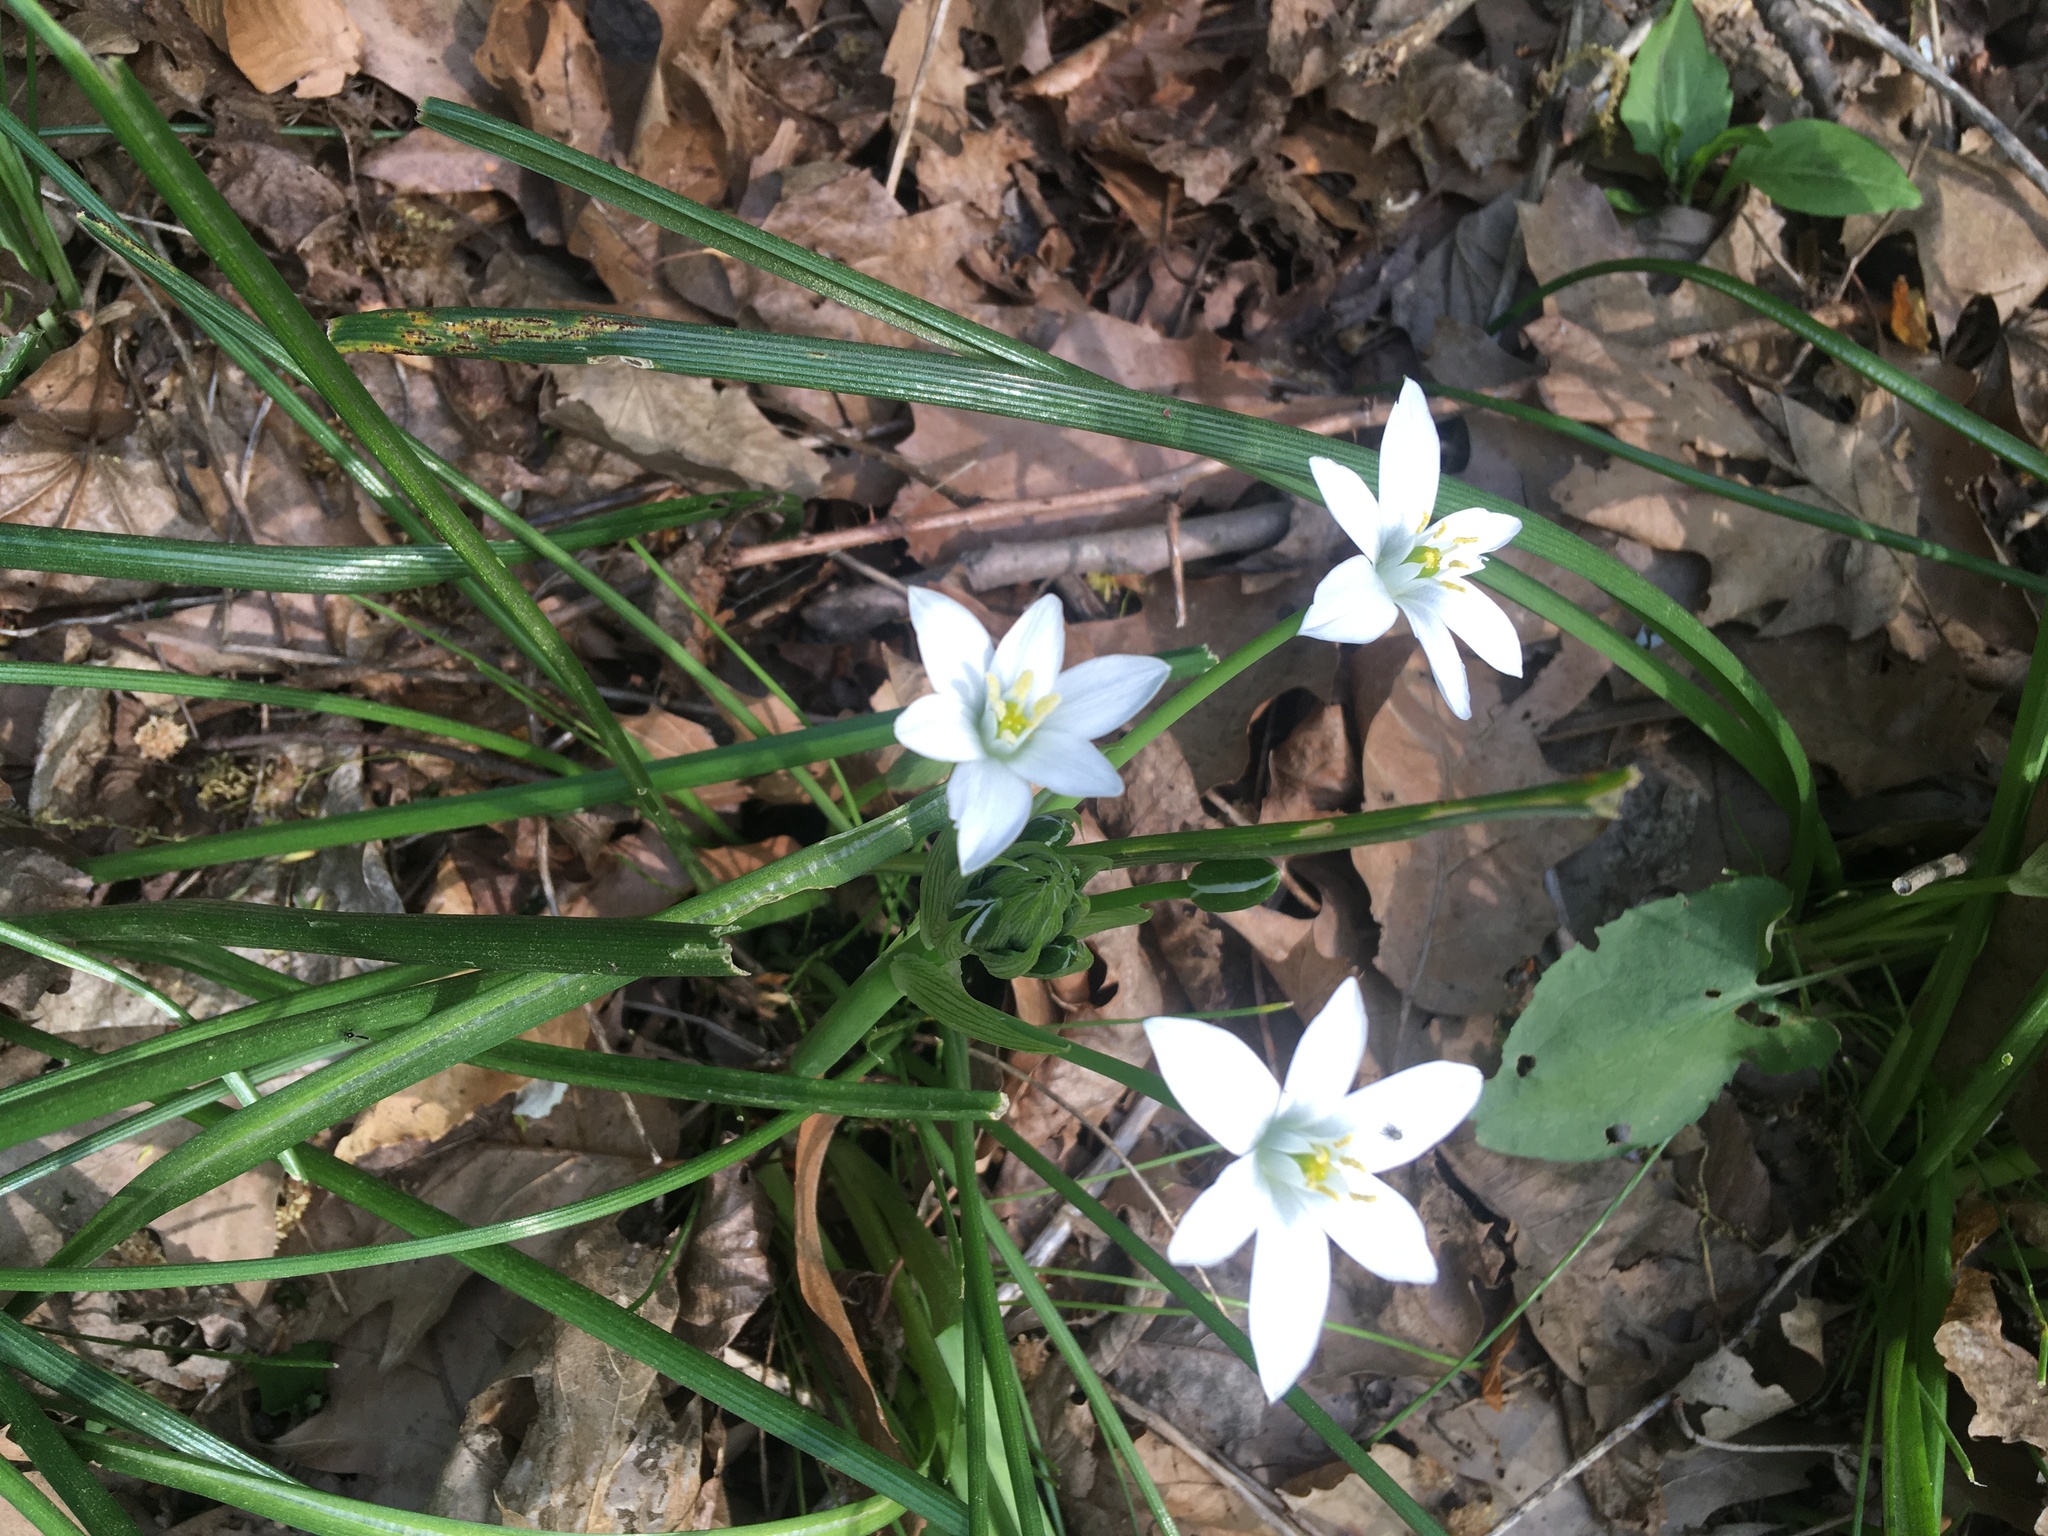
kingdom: Plantae
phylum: Tracheophyta
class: Liliopsida
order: Asparagales
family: Asparagaceae
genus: Ornithogalum
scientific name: Ornithogalum umbellatum
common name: Garden star-of-bethlehem
